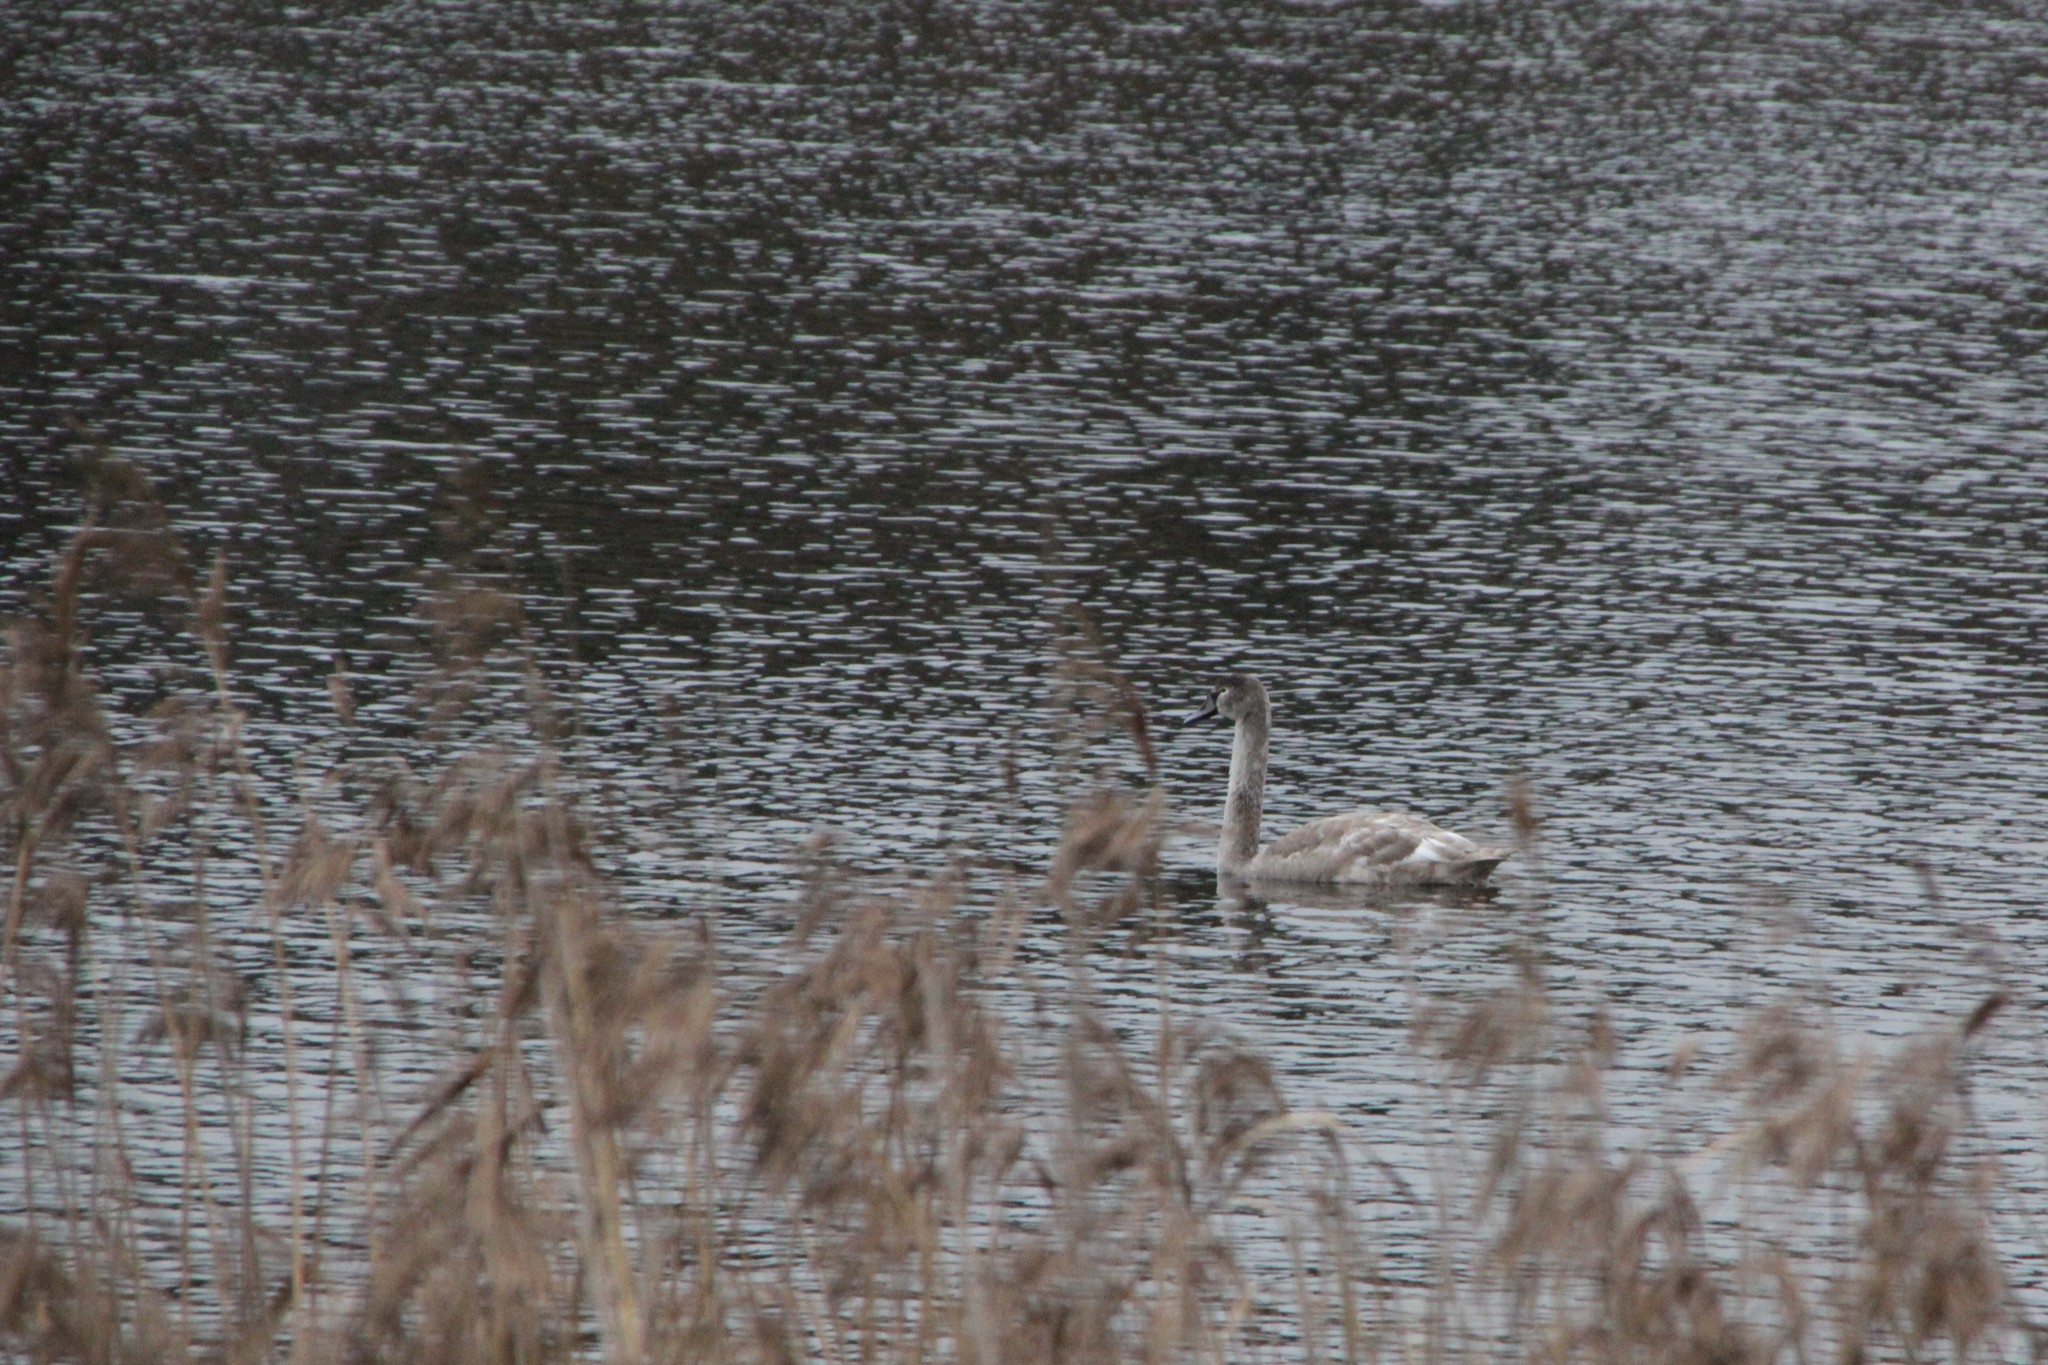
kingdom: Animalia
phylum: Chordata
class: Aves
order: Anseriformes
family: Anatidae
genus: Cygnus
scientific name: Cygnus olor
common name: Mute swan
